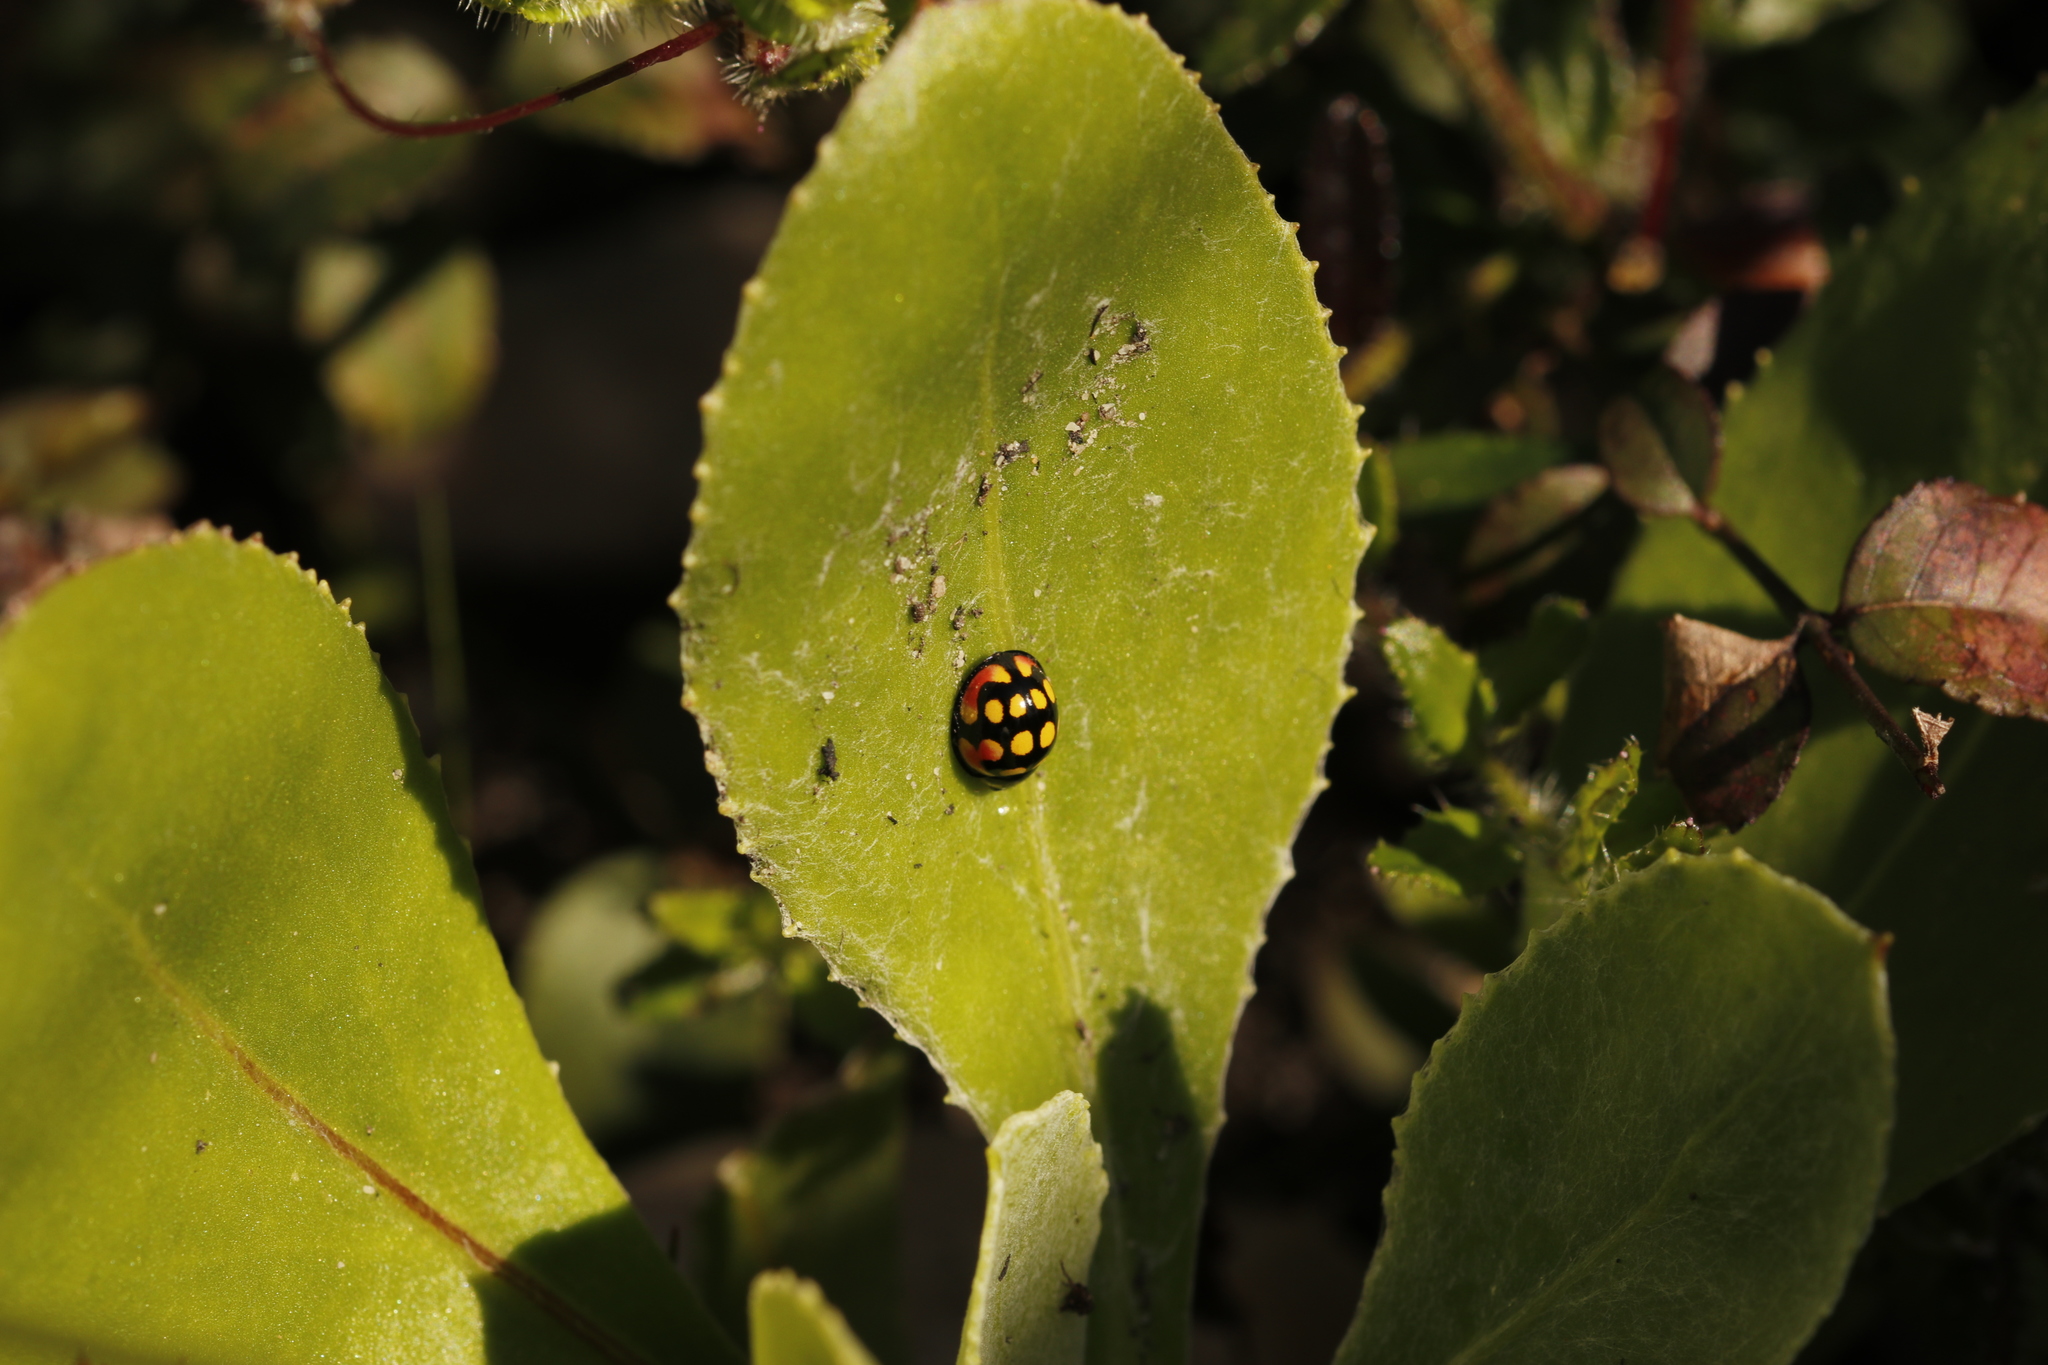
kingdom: Animalia
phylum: Arthropoda
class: Insecta
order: Coleoptera
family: Coccinellidae
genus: Cheilomenes
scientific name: Cheilomenes sulphurea
